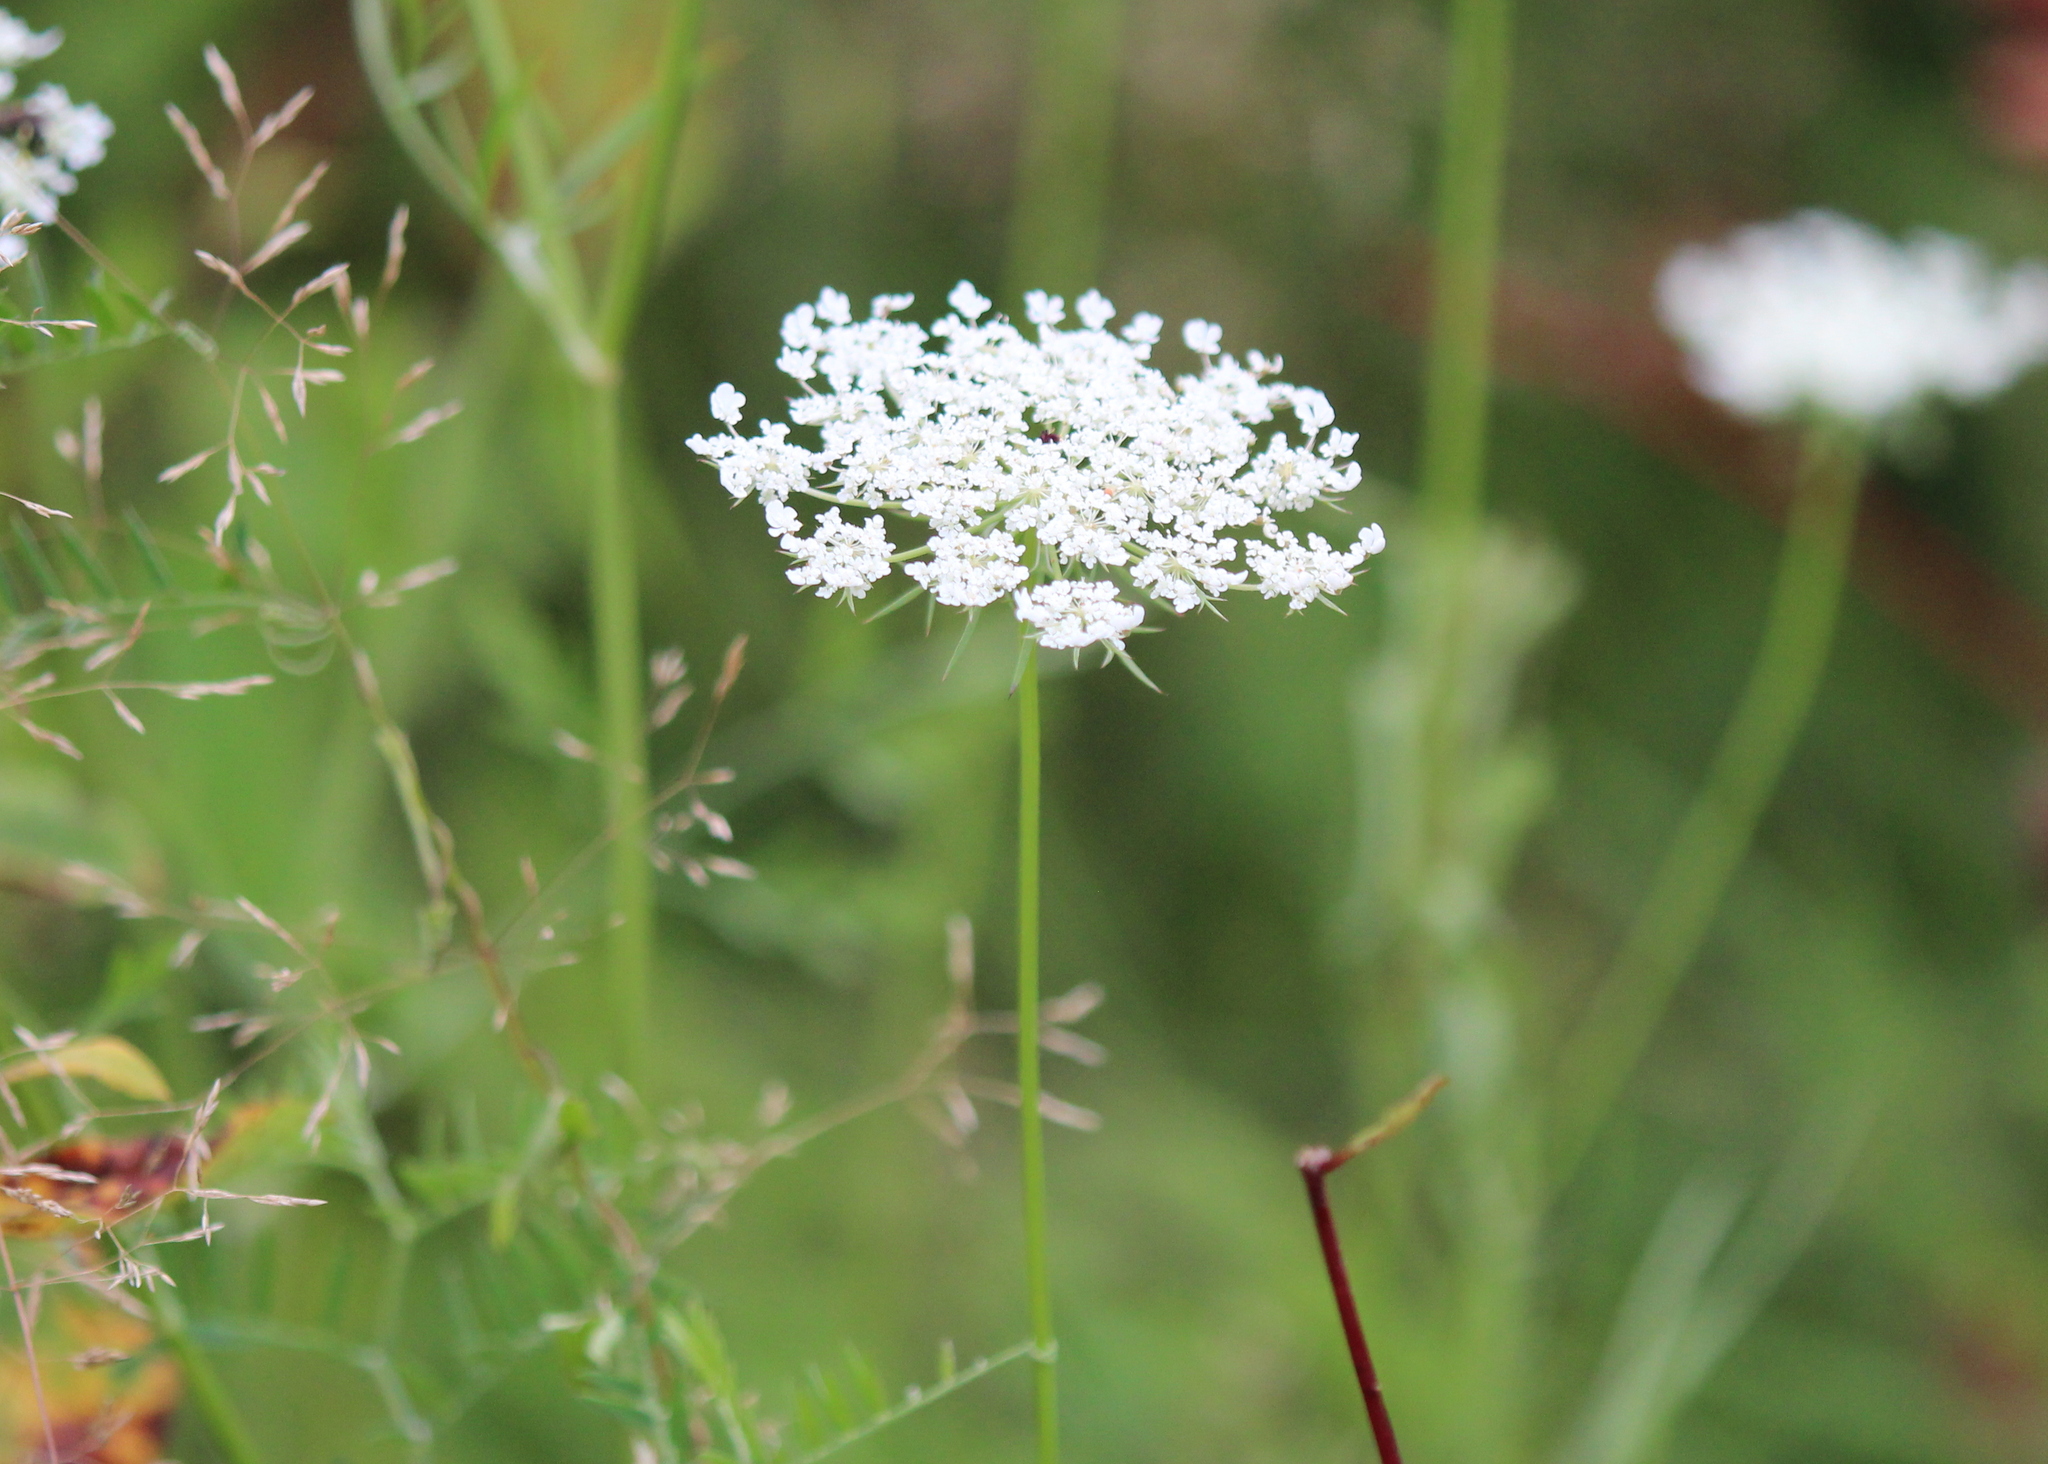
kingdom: Plantae
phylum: Tracheophyta
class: Magnoliopsida
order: Apiales
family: Apiaceae
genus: Daucus
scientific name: Daucus carota
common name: Wild carrot
